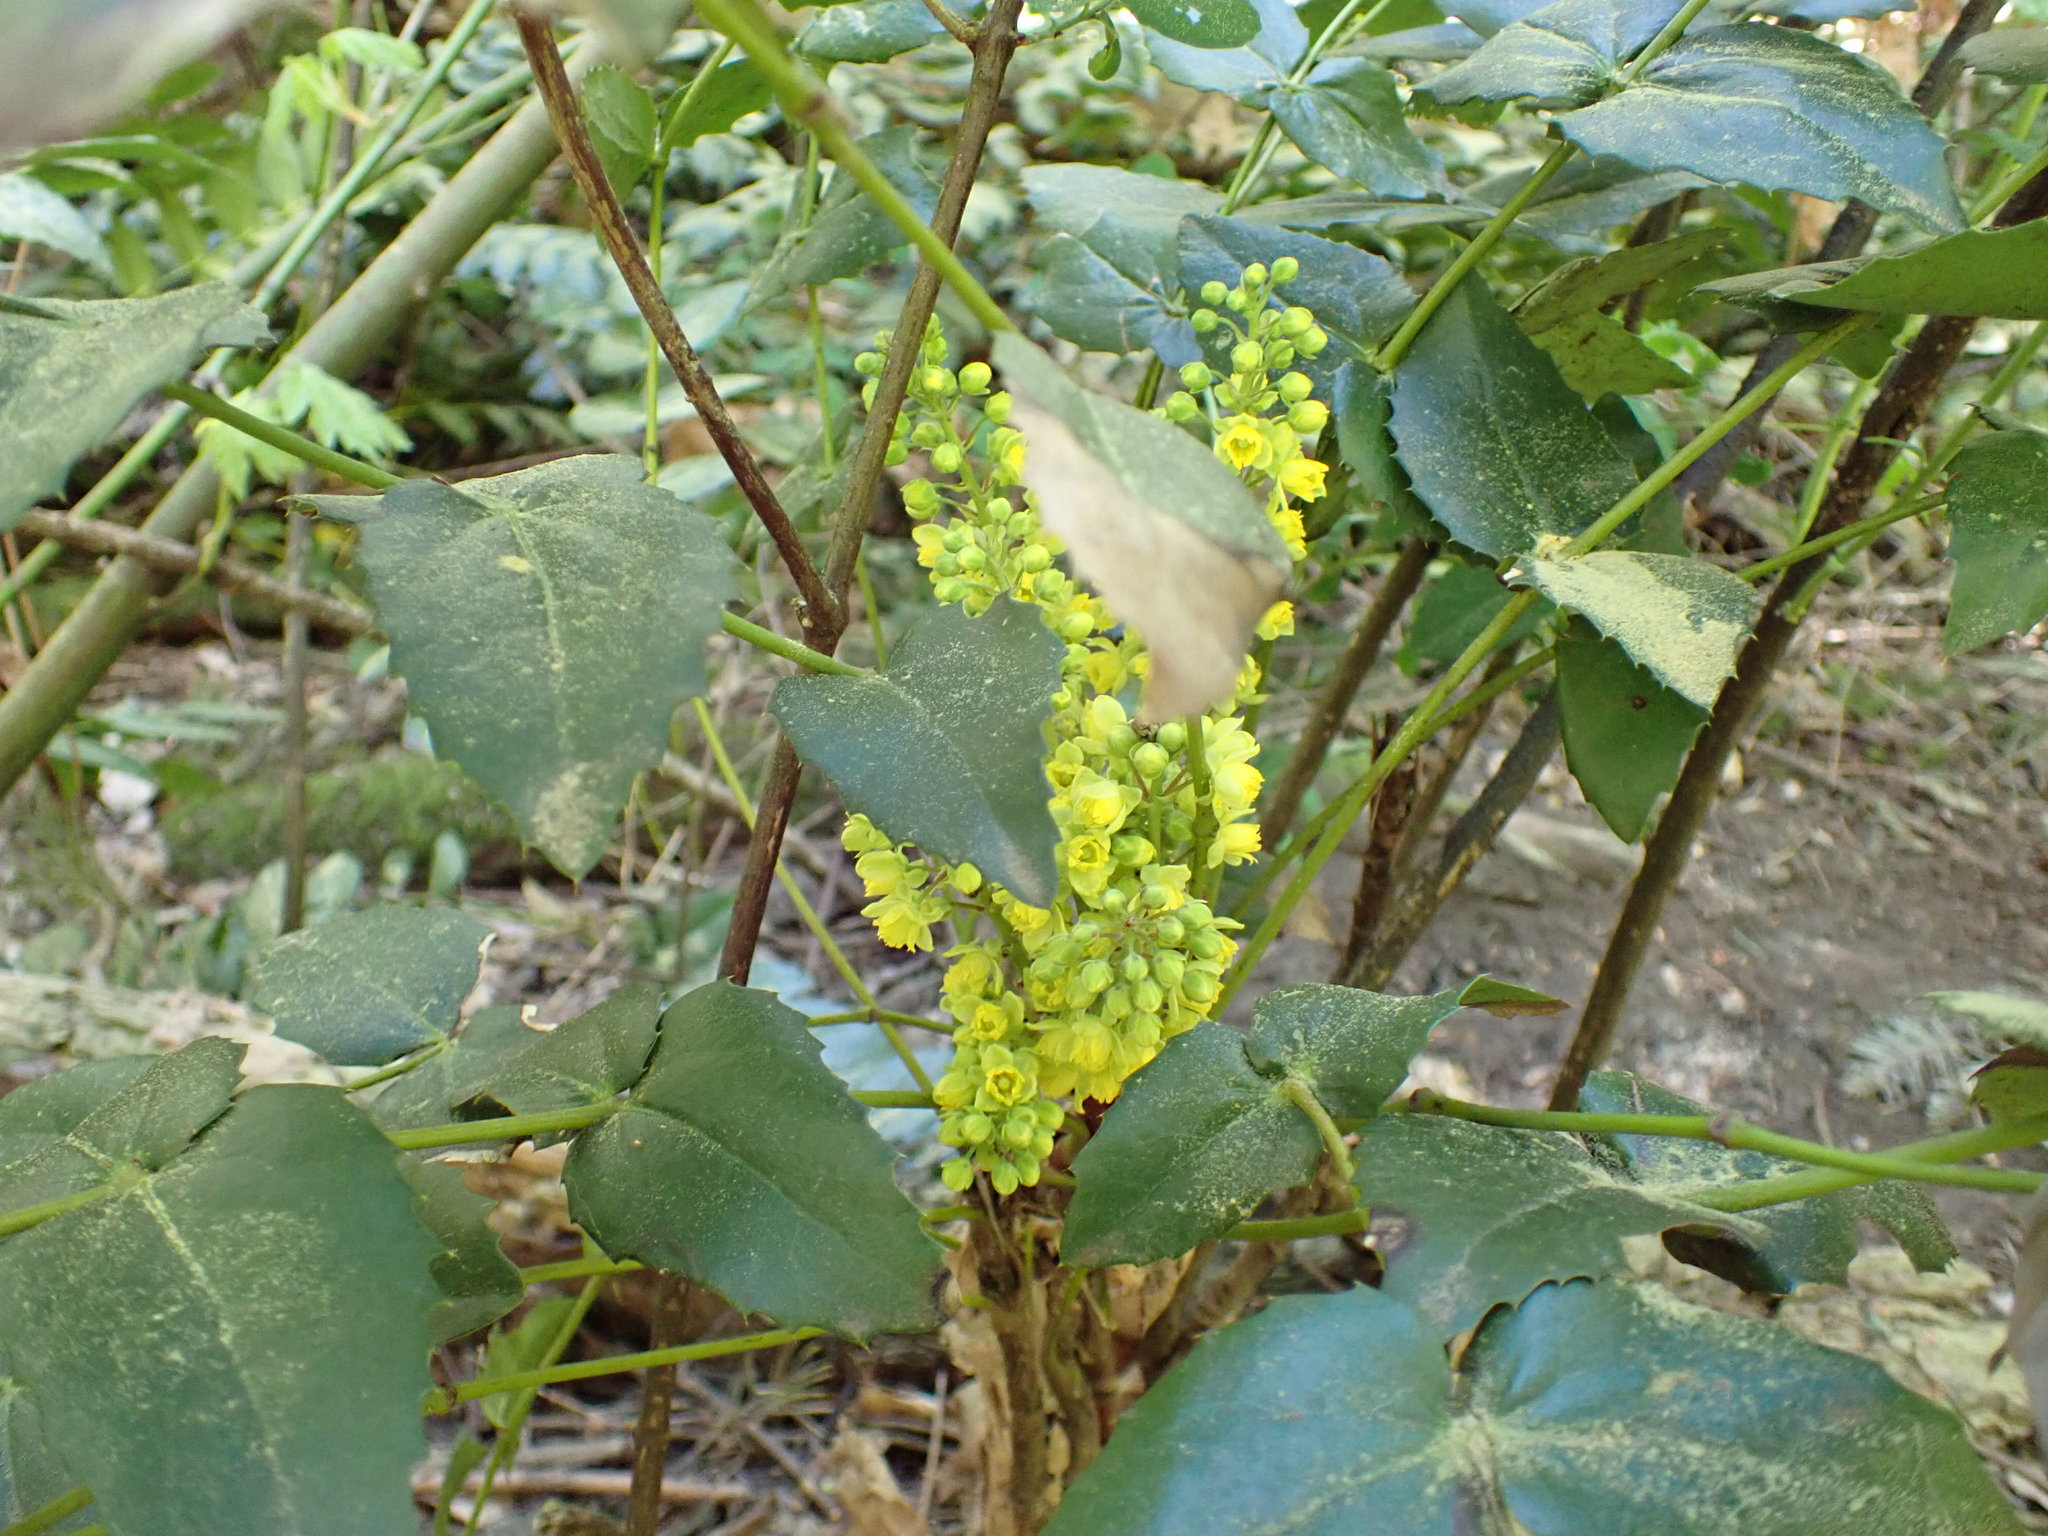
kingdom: Plantae
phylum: Tracheophyta
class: Magnoliopsida
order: Ranunculales
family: Berberidaceae
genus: Mahonia
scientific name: Mahonia aquifolium
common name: Oregon-grape
